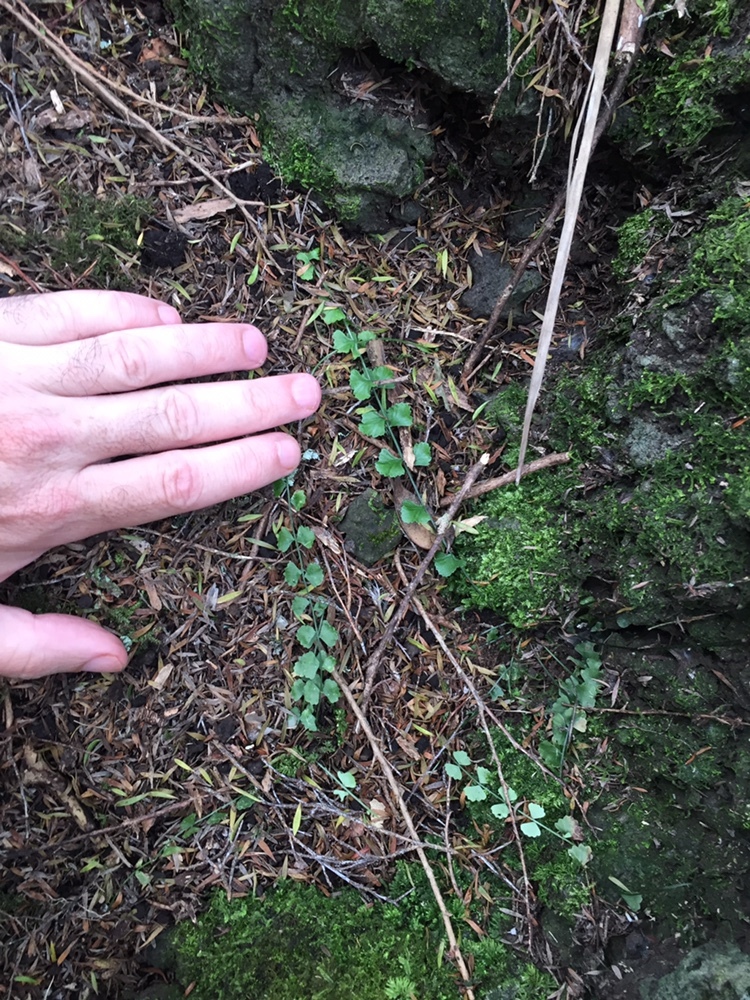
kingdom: Plantae
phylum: Tracheophyta
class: Polypodiopsida
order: Polypodiales
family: Aspleniaceae
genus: Asplenium
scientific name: Asplenium flabellifolium
